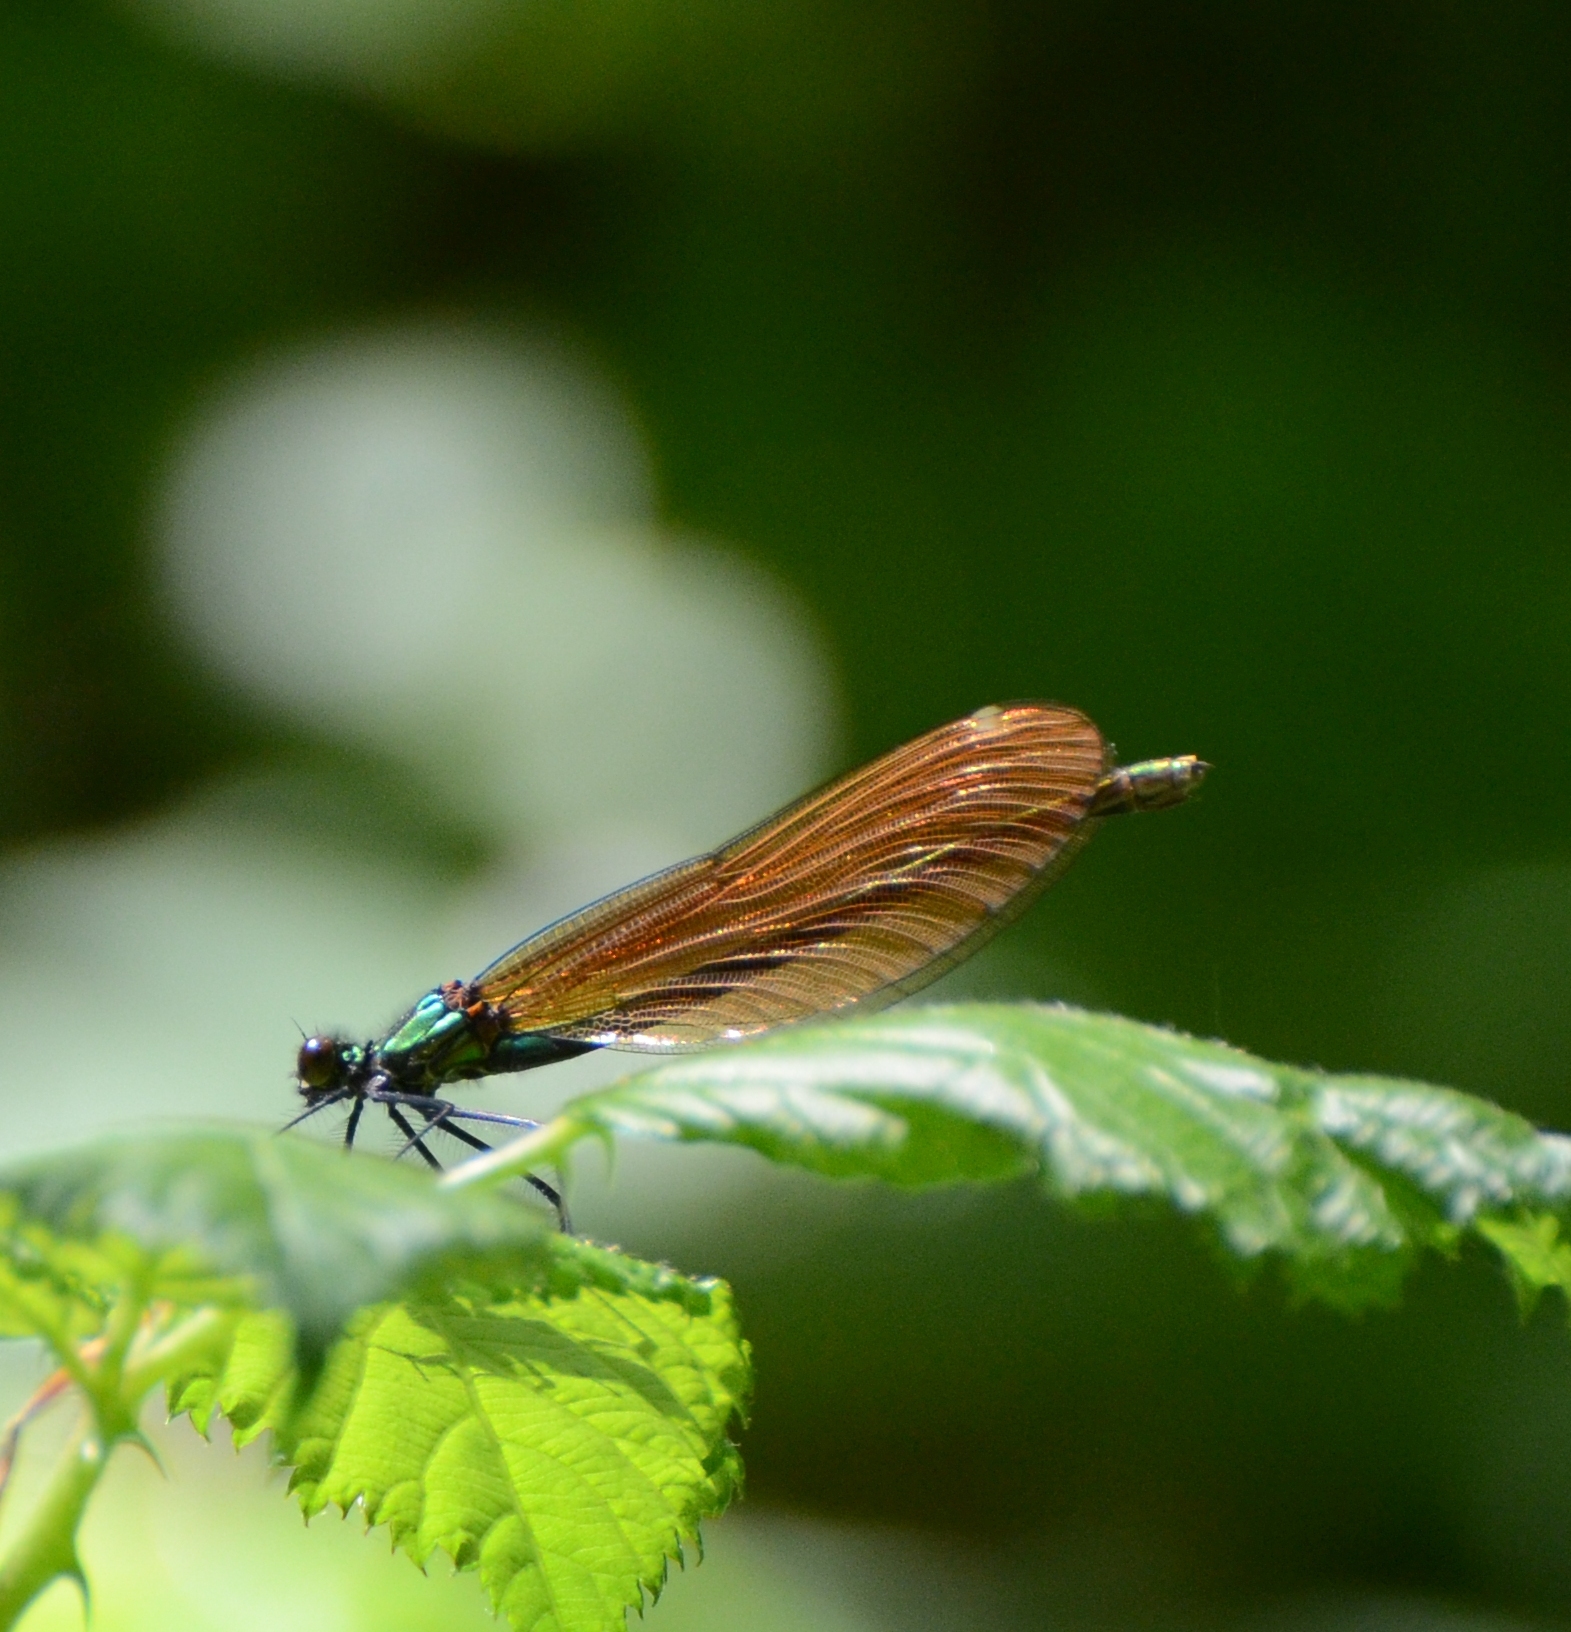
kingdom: Animalia
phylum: Arthropoda
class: Insecta
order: Odonata
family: Calopterygidae
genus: Calopteryx
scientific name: Calopteryx virgo
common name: Beautiful demoiselle
